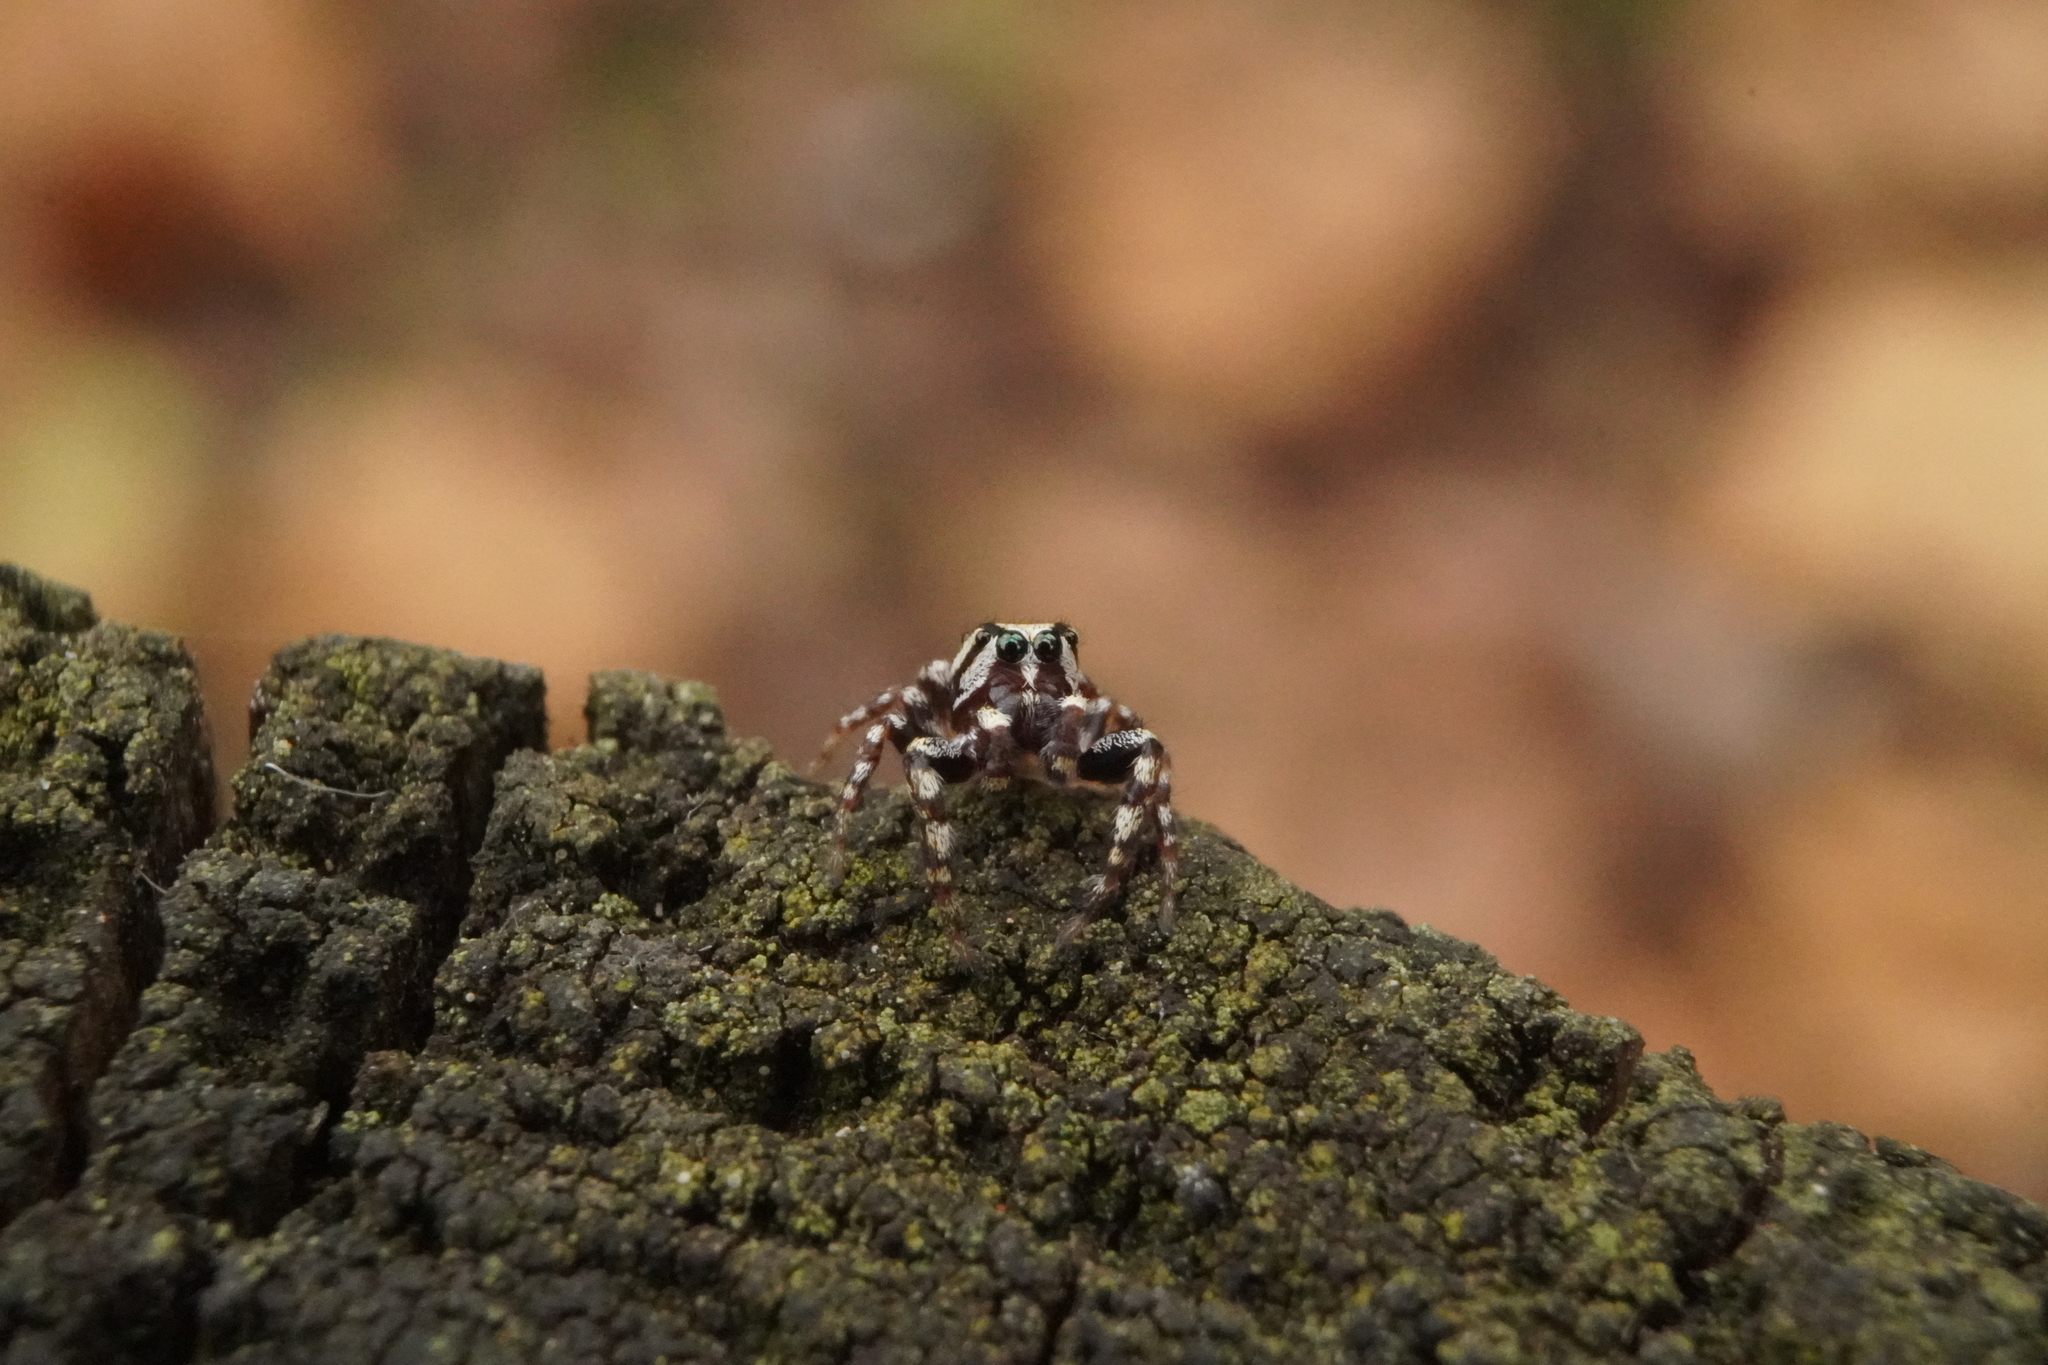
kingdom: Animalia
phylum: Arthropoda
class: Arachnida
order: Araneae
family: Salticidae
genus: Pelegrina
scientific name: Pelegrina proterva
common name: Common white-cheeked jumping spider
